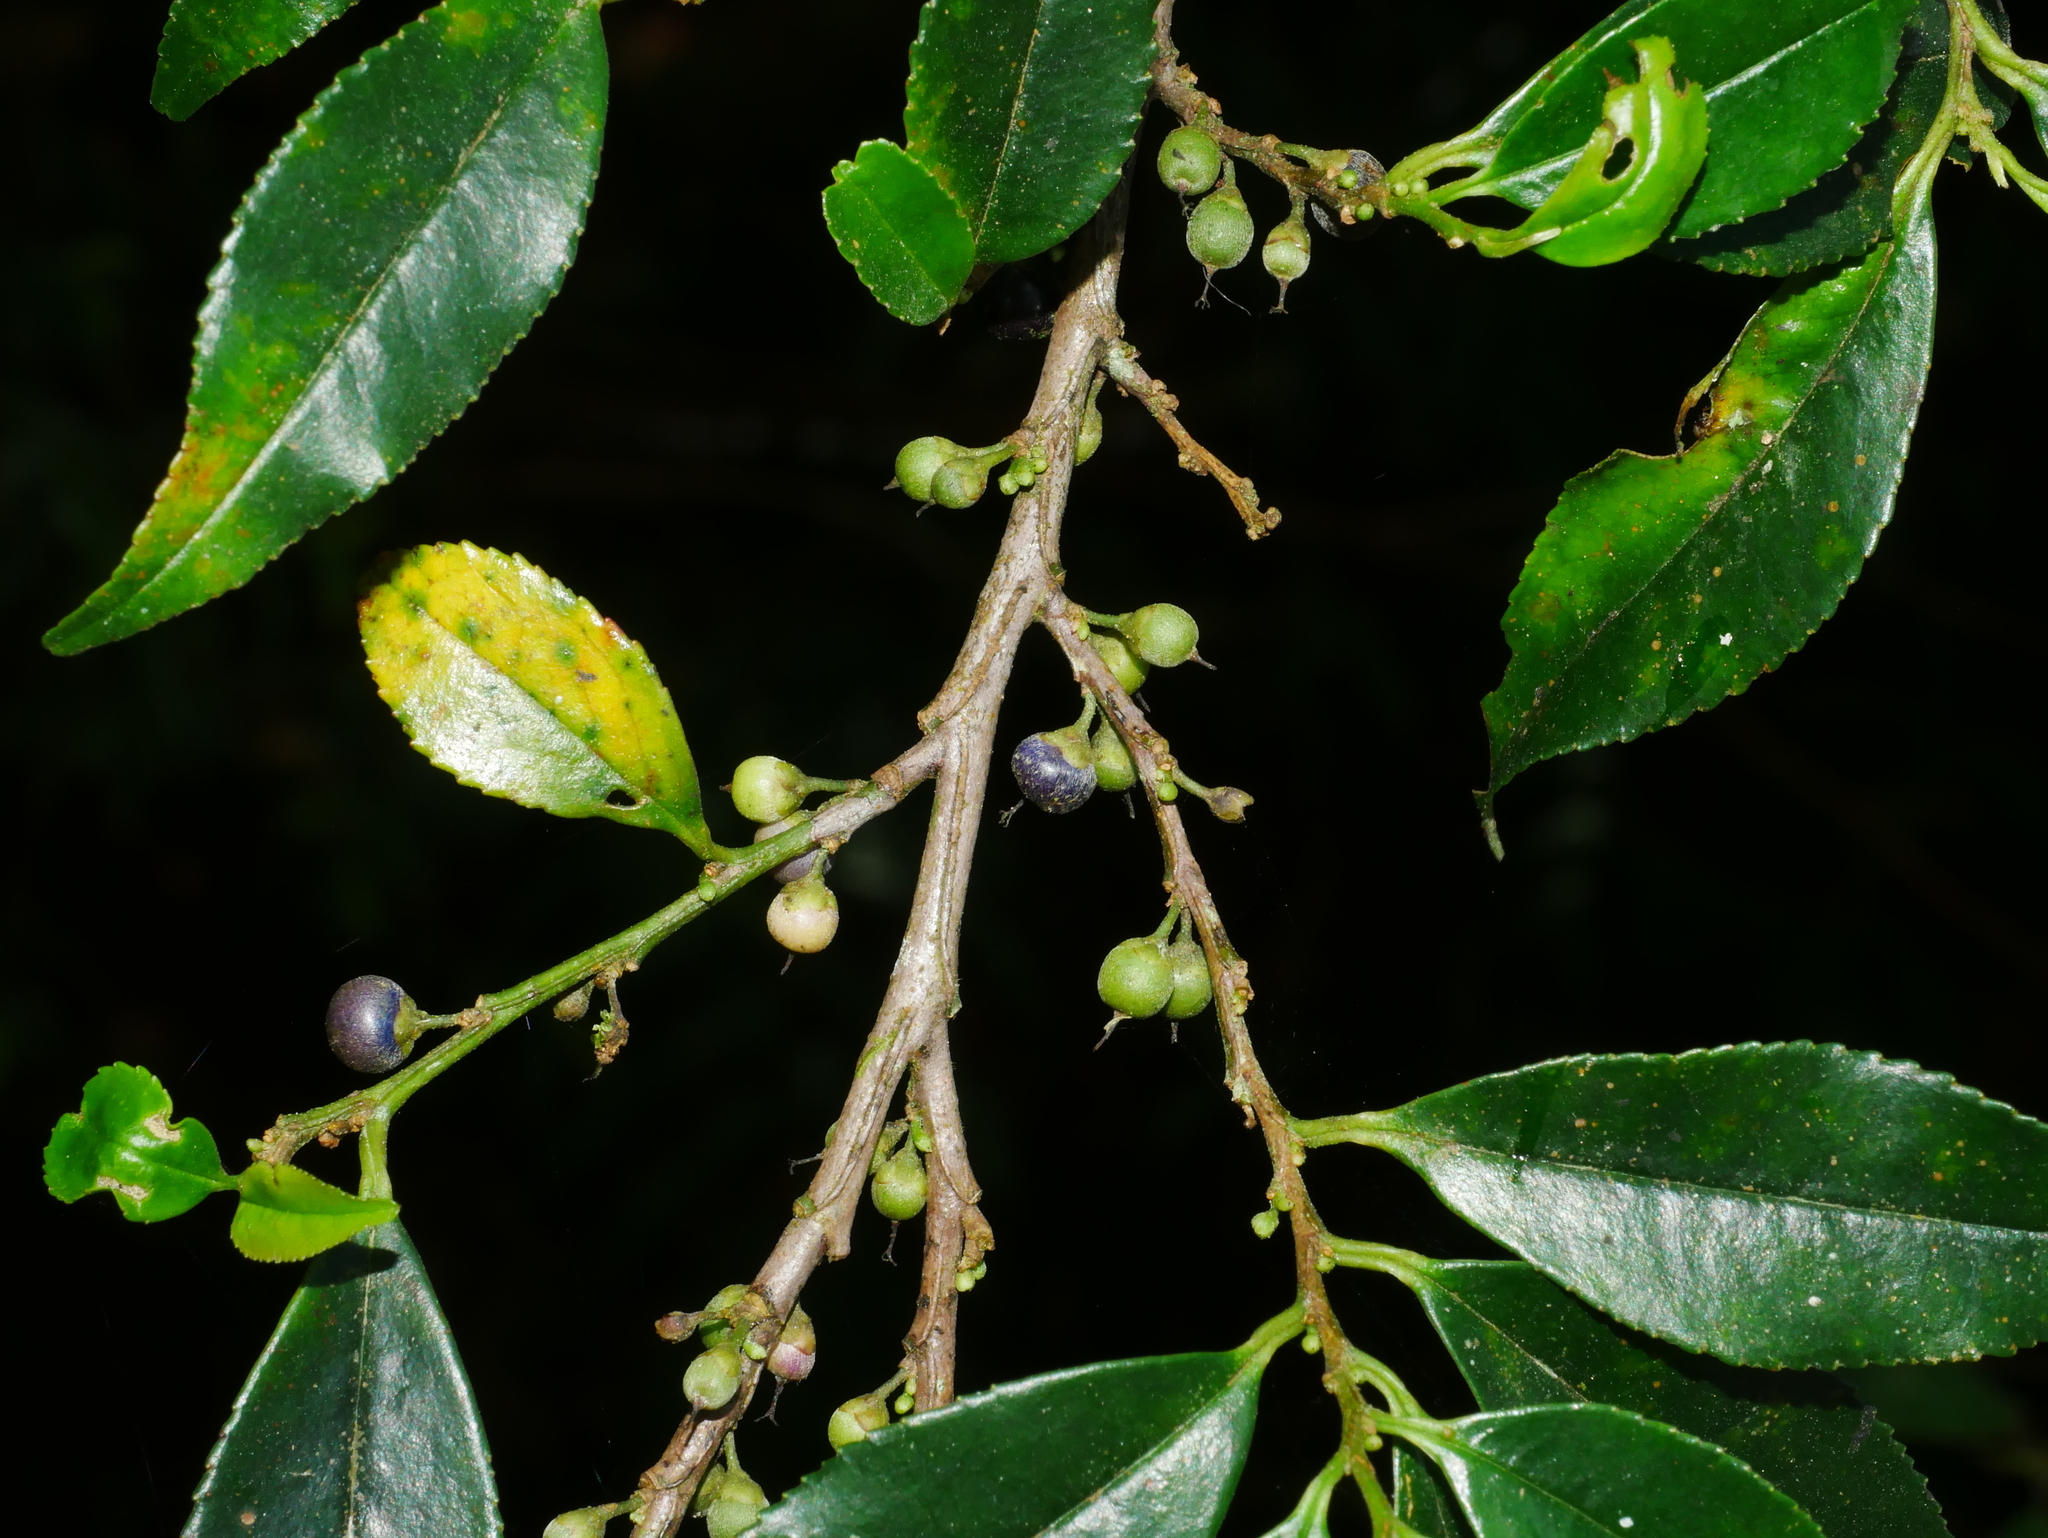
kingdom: Plantae
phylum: Tracheophyta
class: Magnoliopsida
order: Ericales
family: Pentaphylacaceae
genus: Eurya
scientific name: Eurya gnaphalocarpa
